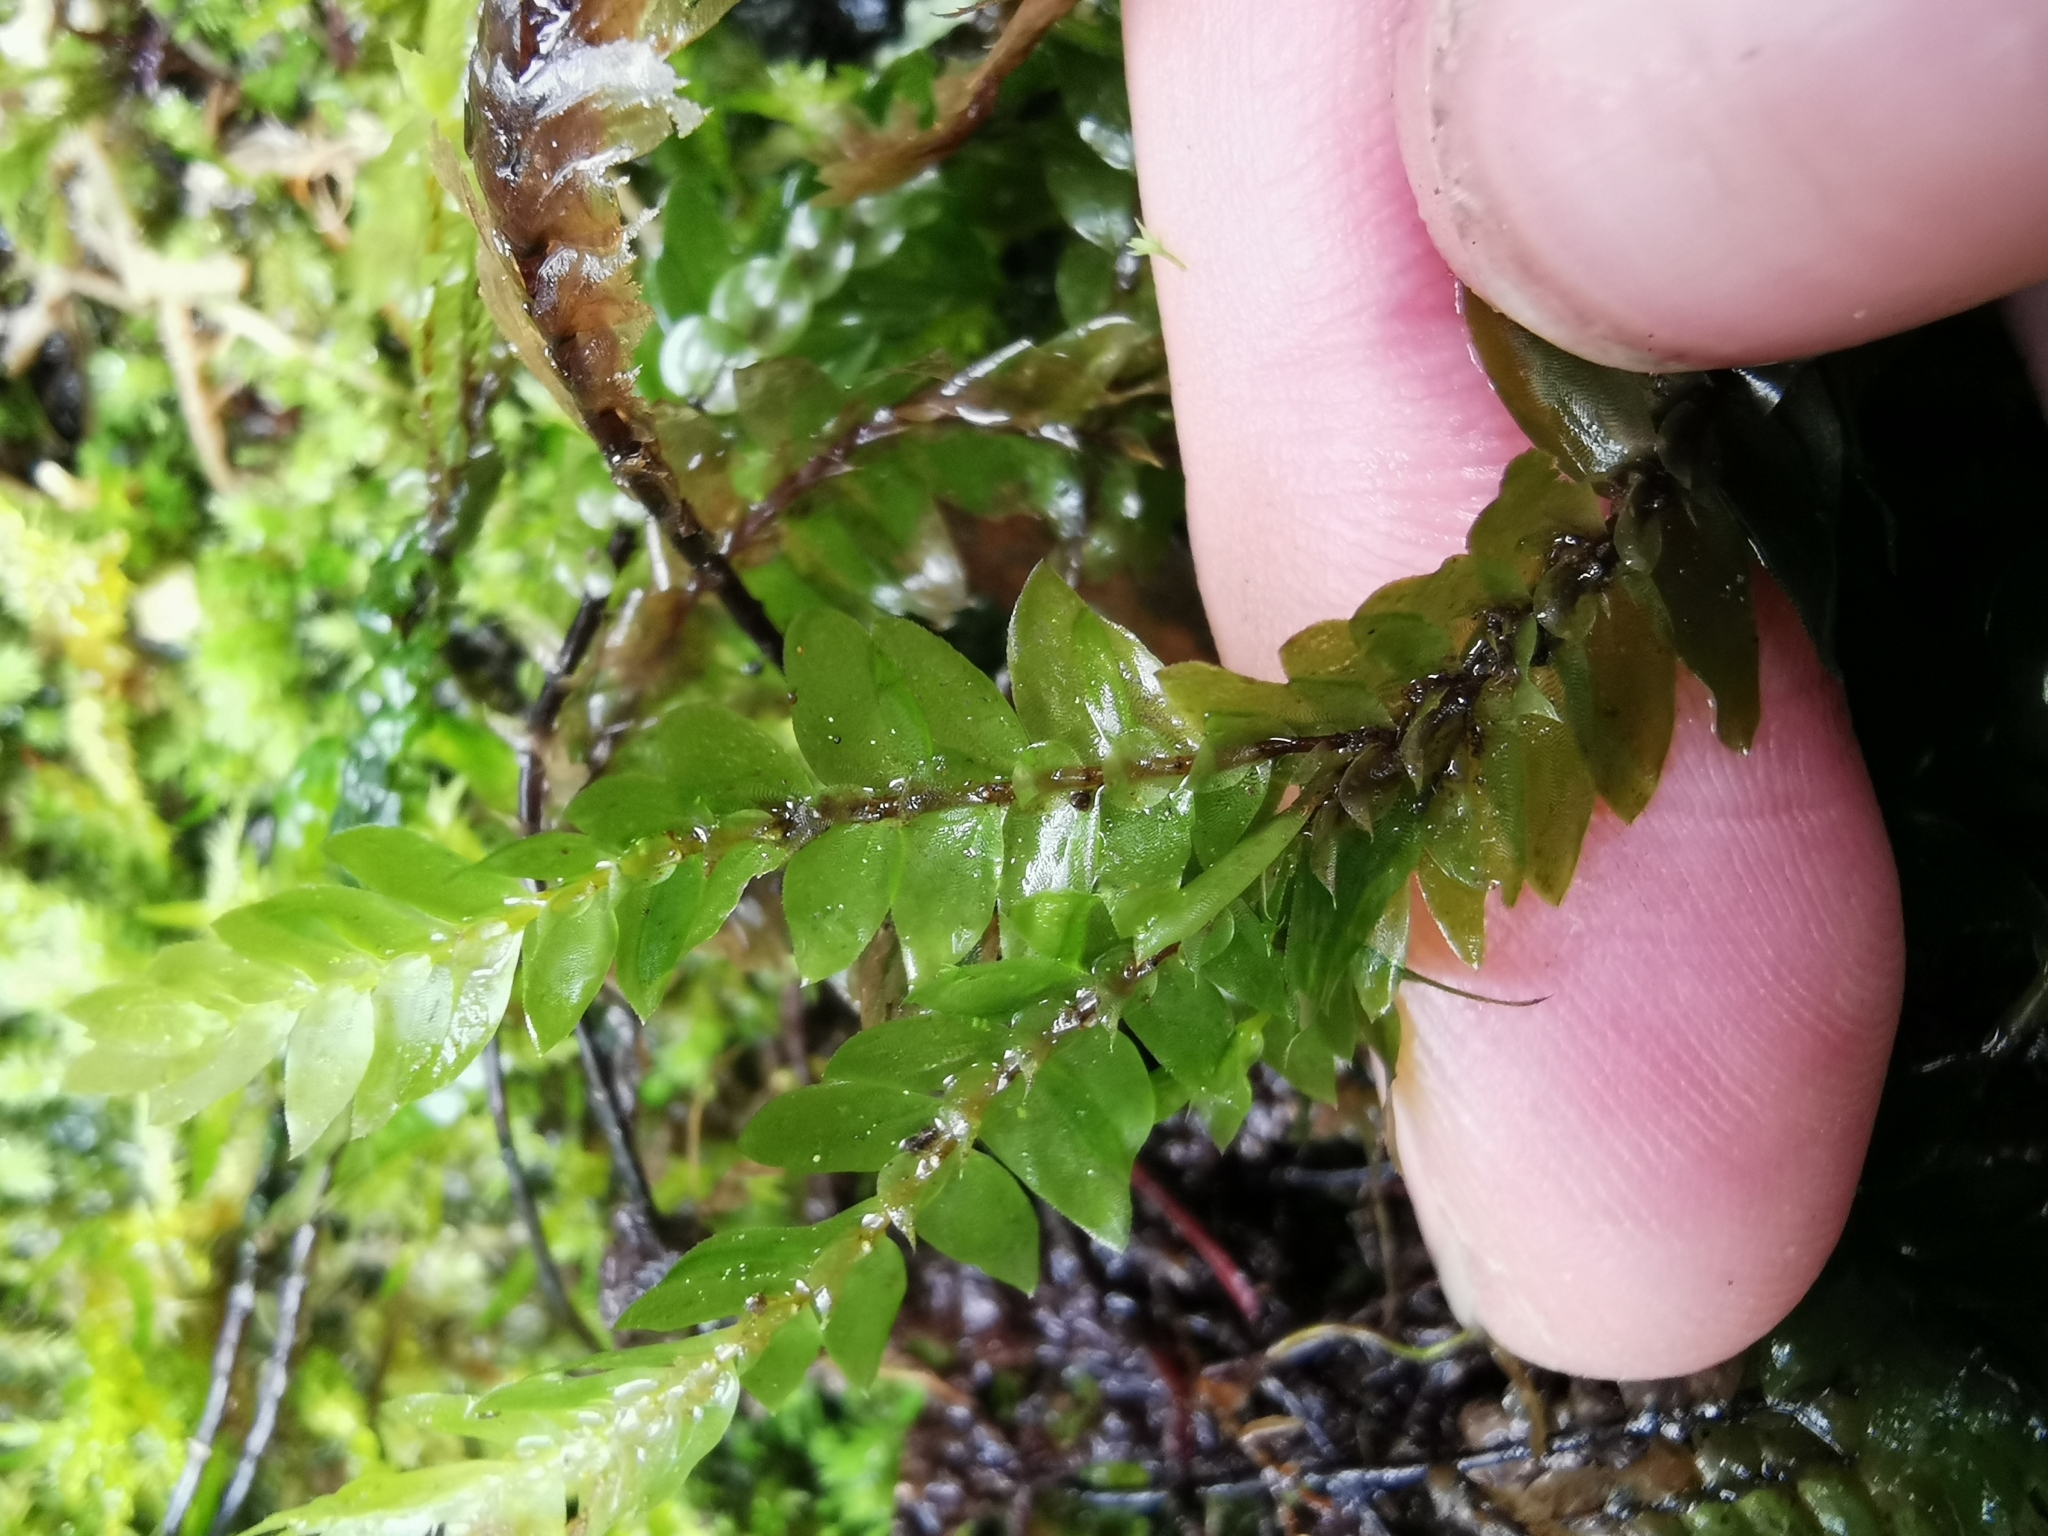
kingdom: Plantae
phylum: Bryophyta
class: Bryopsida
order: Hypopterygiales
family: Hypopterygiaceae
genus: Cyathophorum
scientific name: Cyathophorum bulbosum
